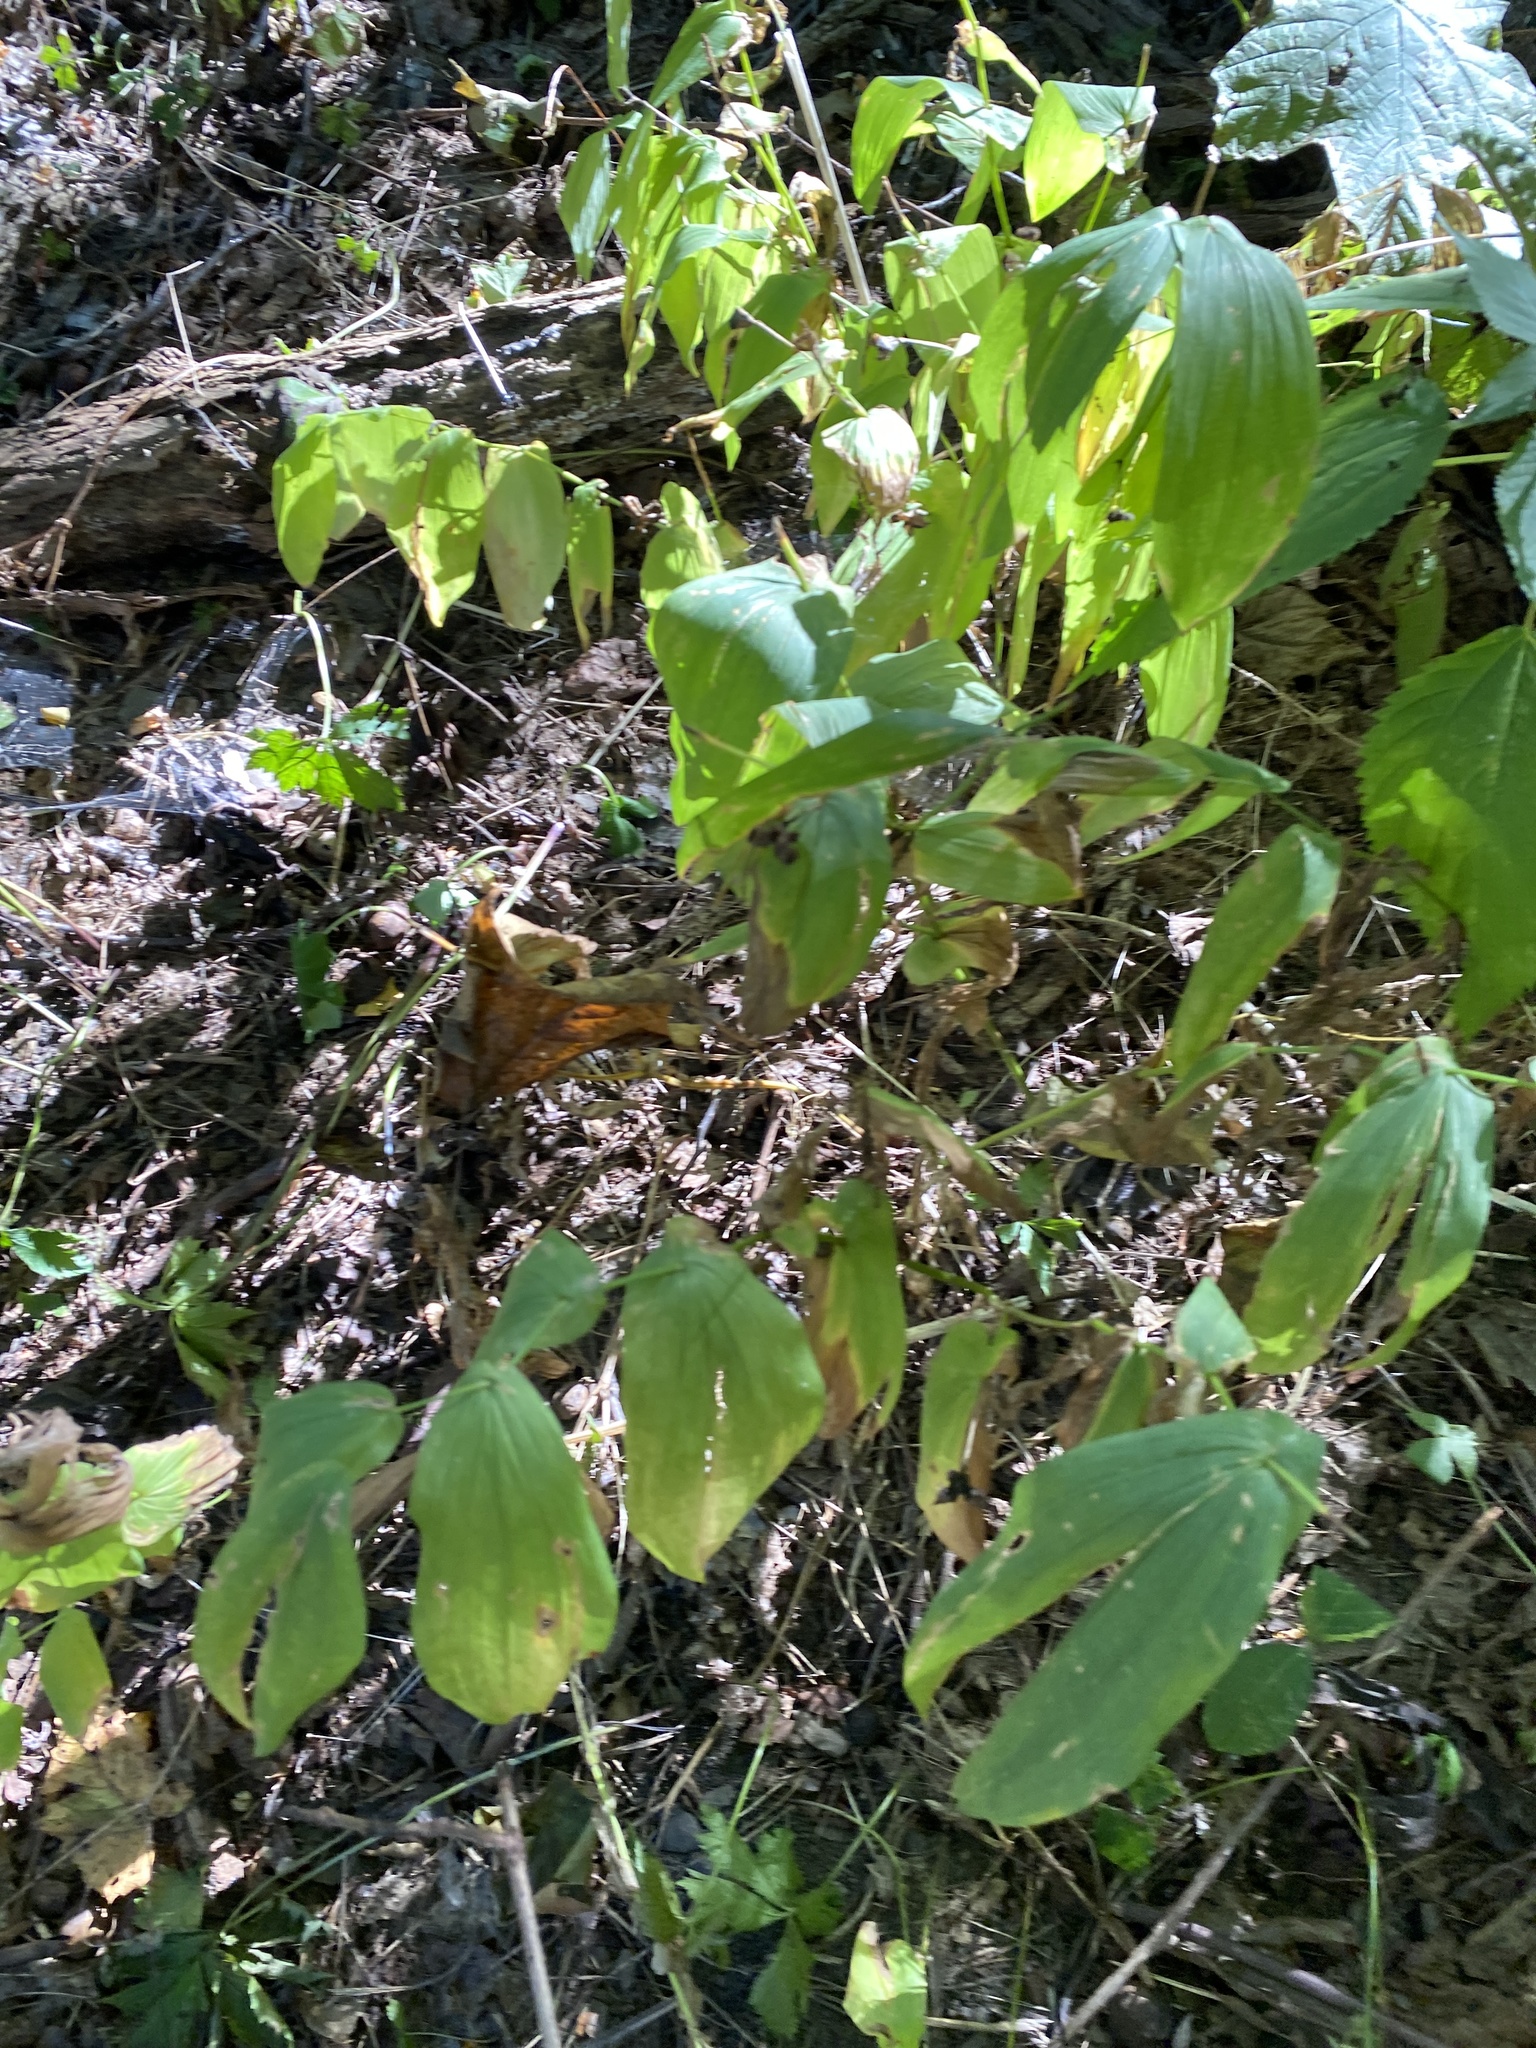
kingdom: Plantae
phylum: Tracheophyta
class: Liliopsida
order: Liliales
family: Colchicaceae
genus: Uvularia
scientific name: Uvularia grandiflora
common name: Bellwort
